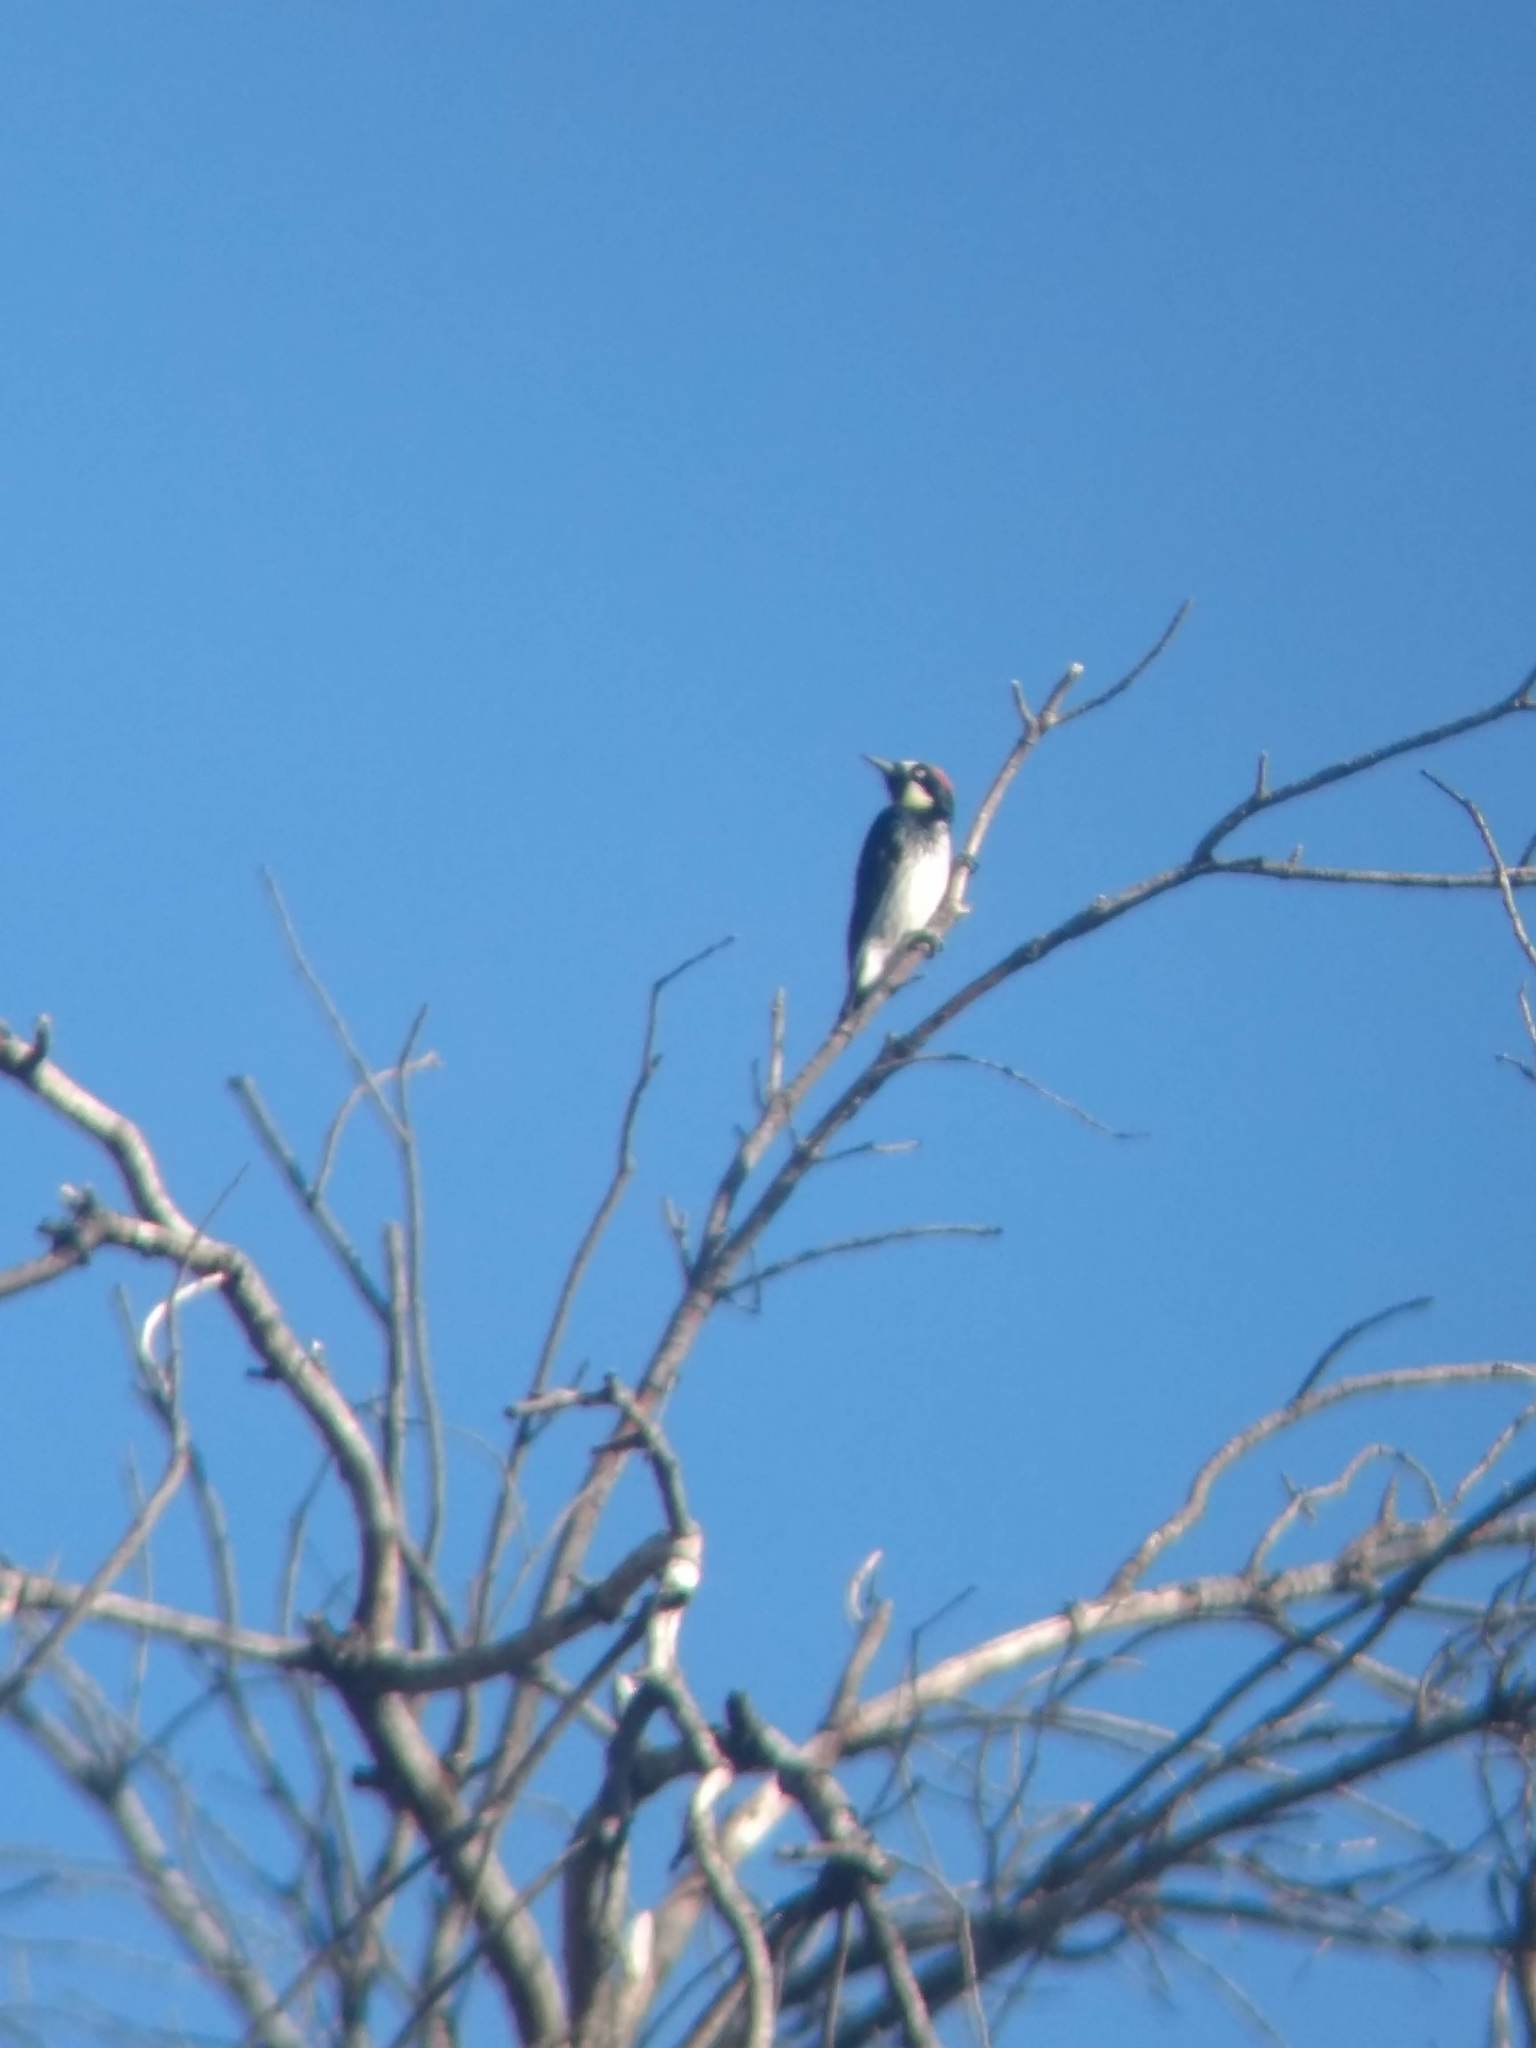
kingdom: Animalia
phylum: Chordata
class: Aves
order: Piciformes
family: Picidae
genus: Melanerpes
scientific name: Melanerpes formicivorus
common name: Acorn woodpecker
